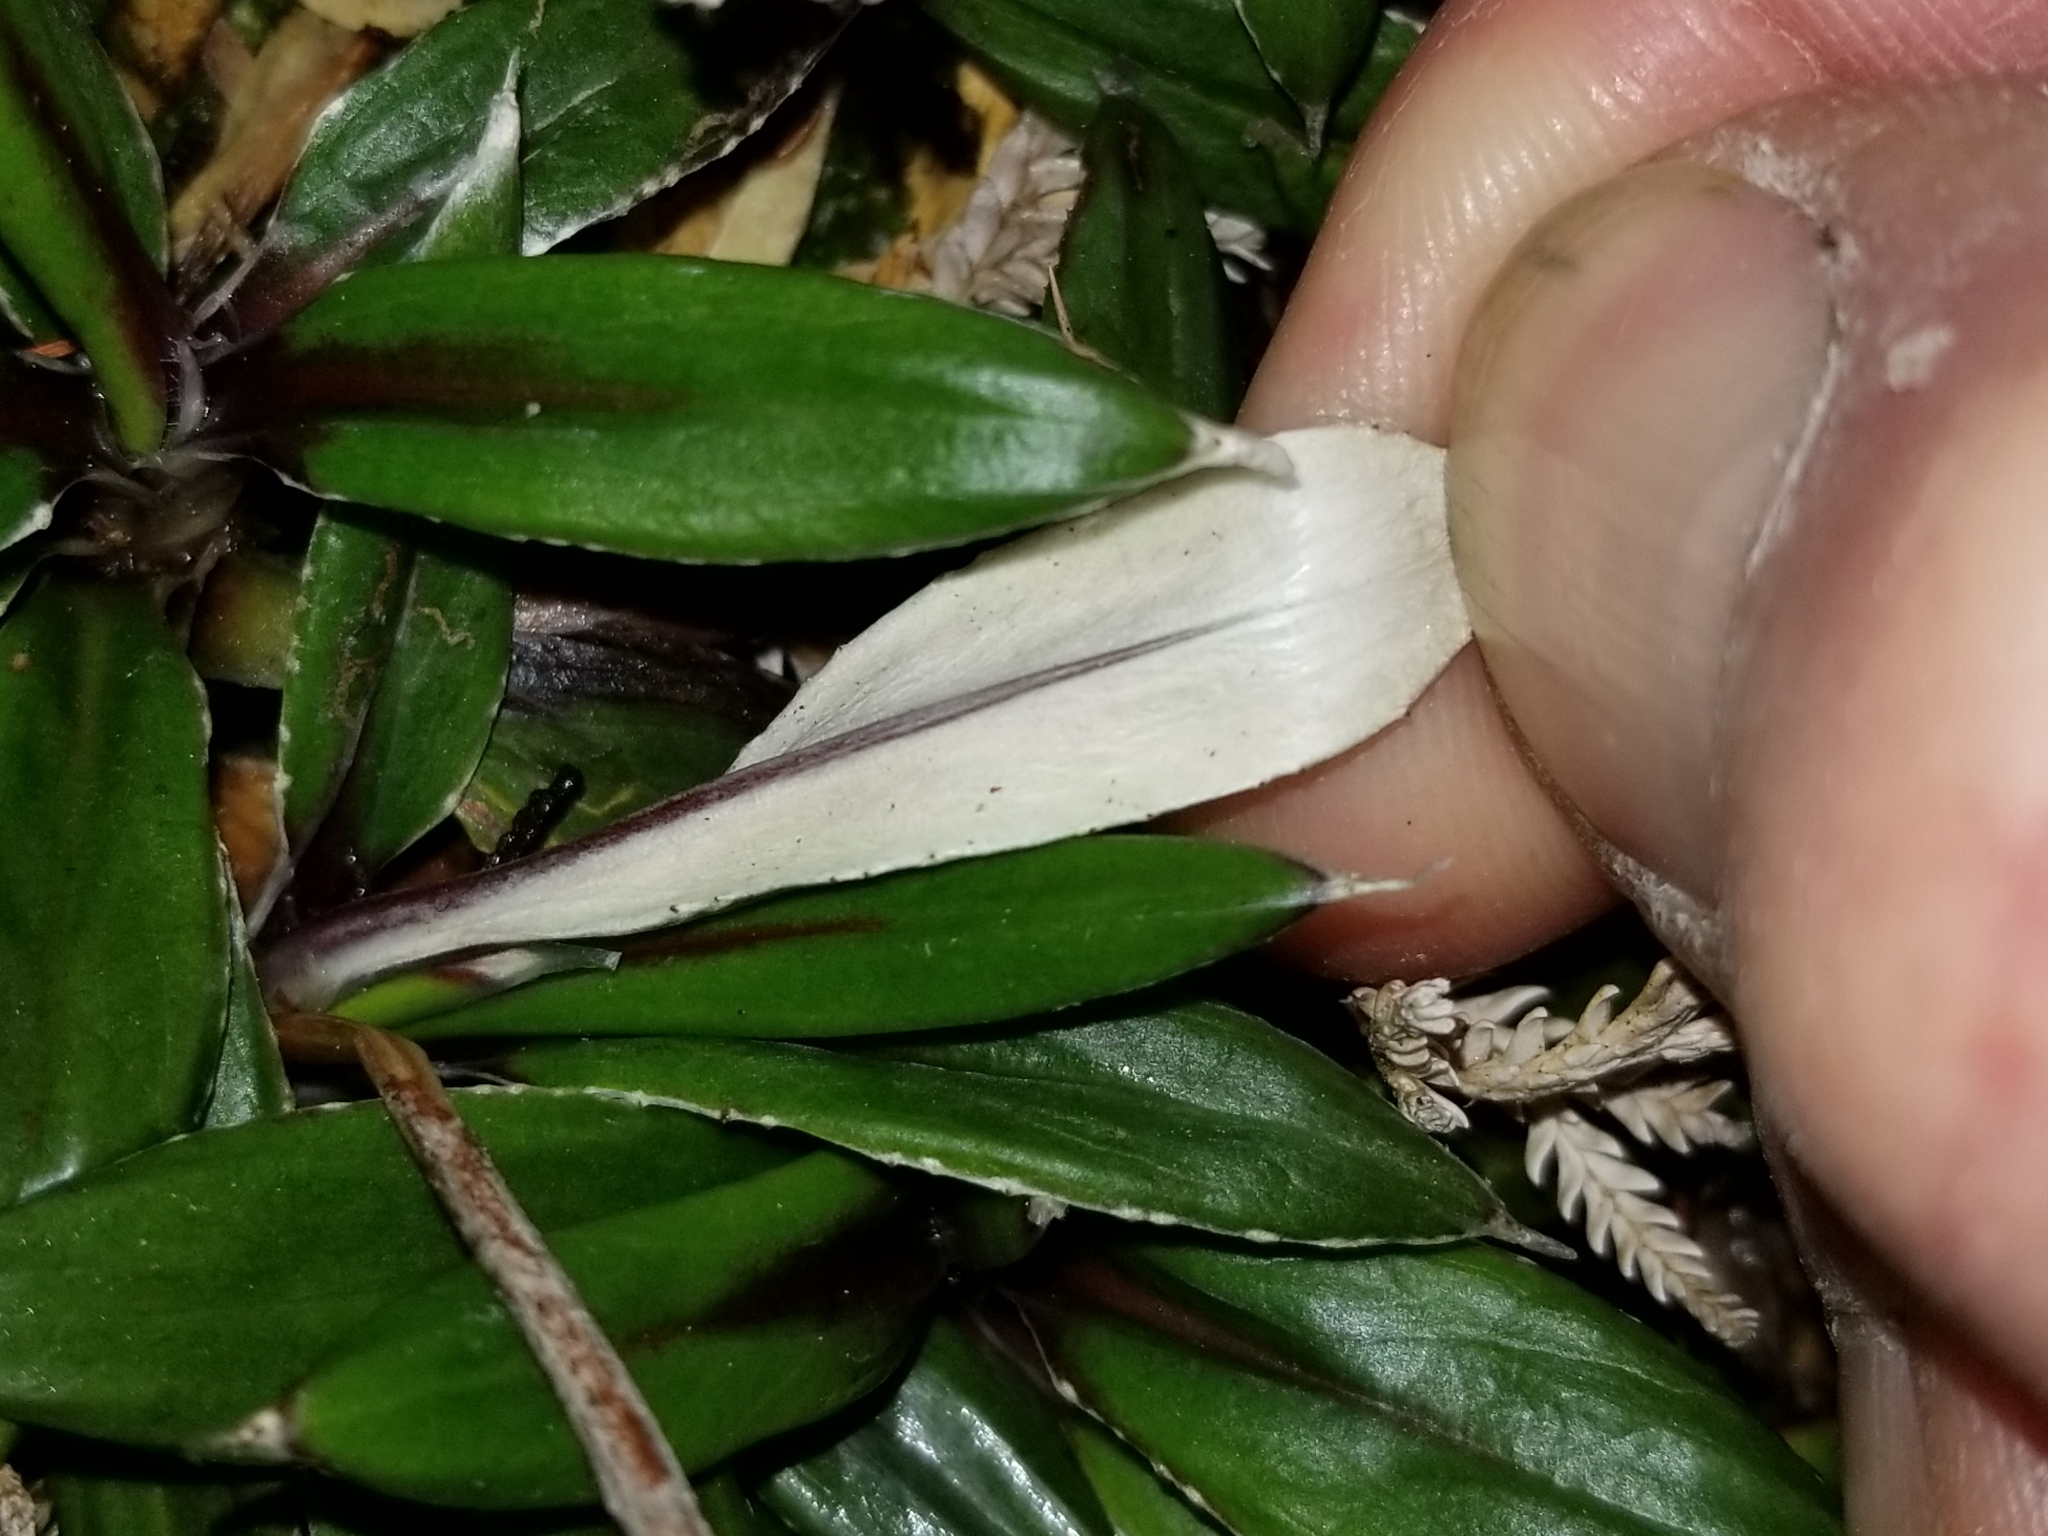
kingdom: Plantae
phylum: Tracheophyta
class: Magnoliopsida
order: Asterales
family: Asteraceae
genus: Celmisia
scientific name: Celmisia dubia
